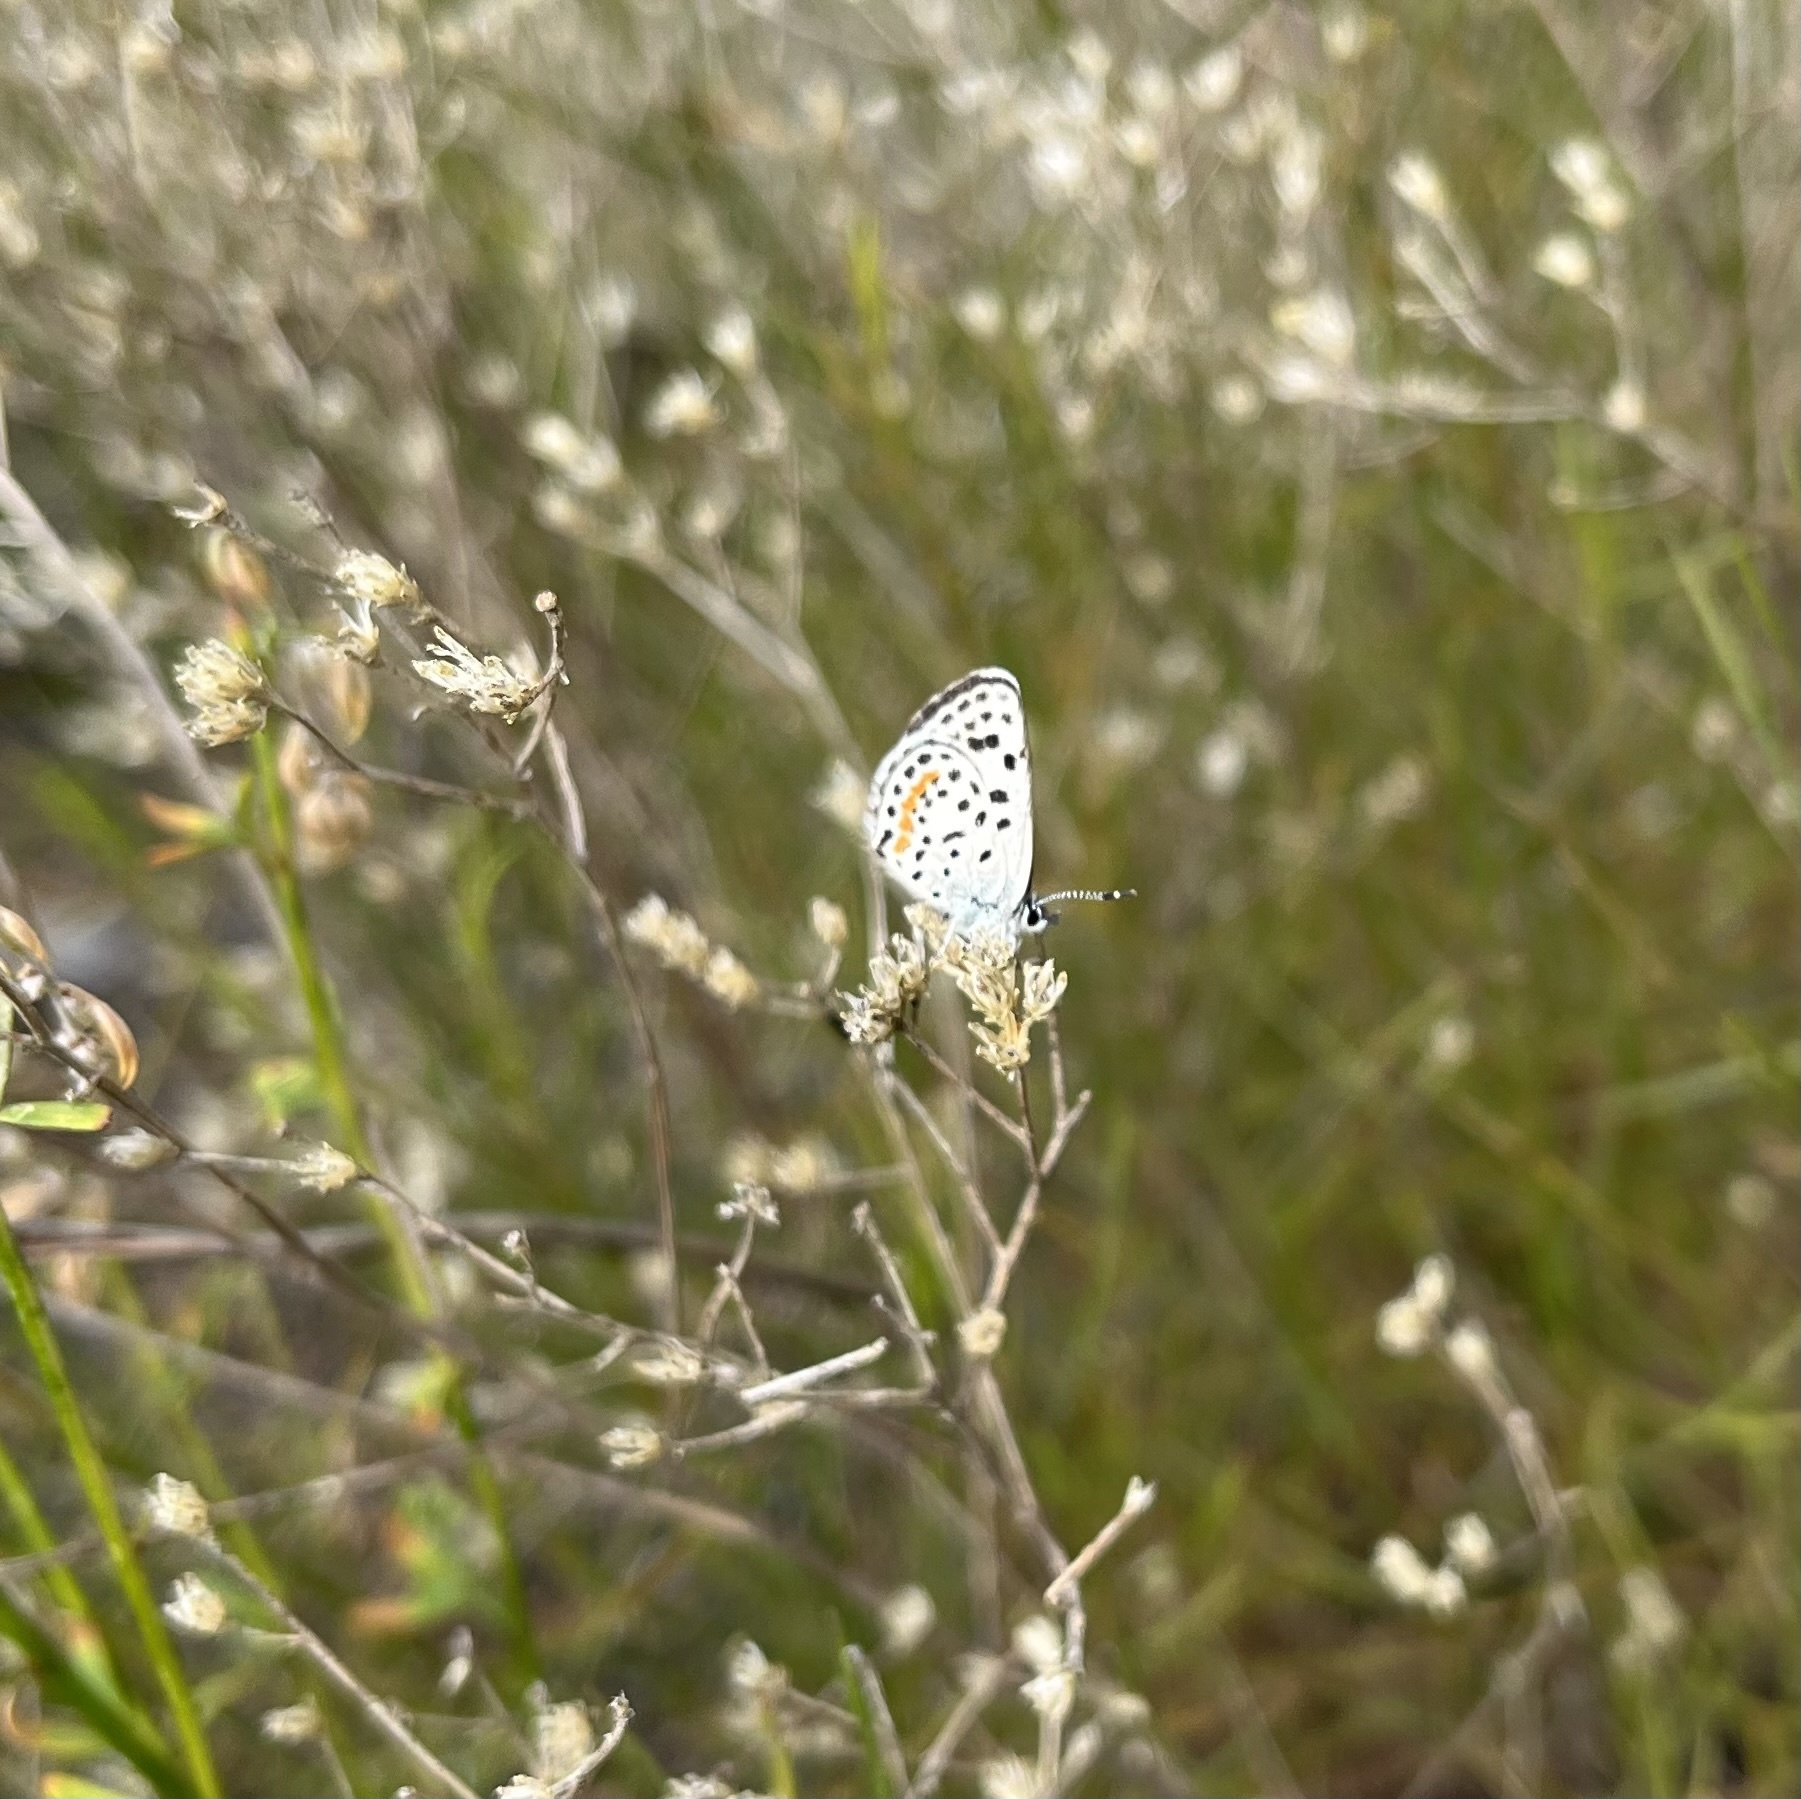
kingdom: Animalia
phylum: Arthropoda
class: Insecta
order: Lepidoptera
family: Lycaenidae
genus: Philotes
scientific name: Philotes bernardino
